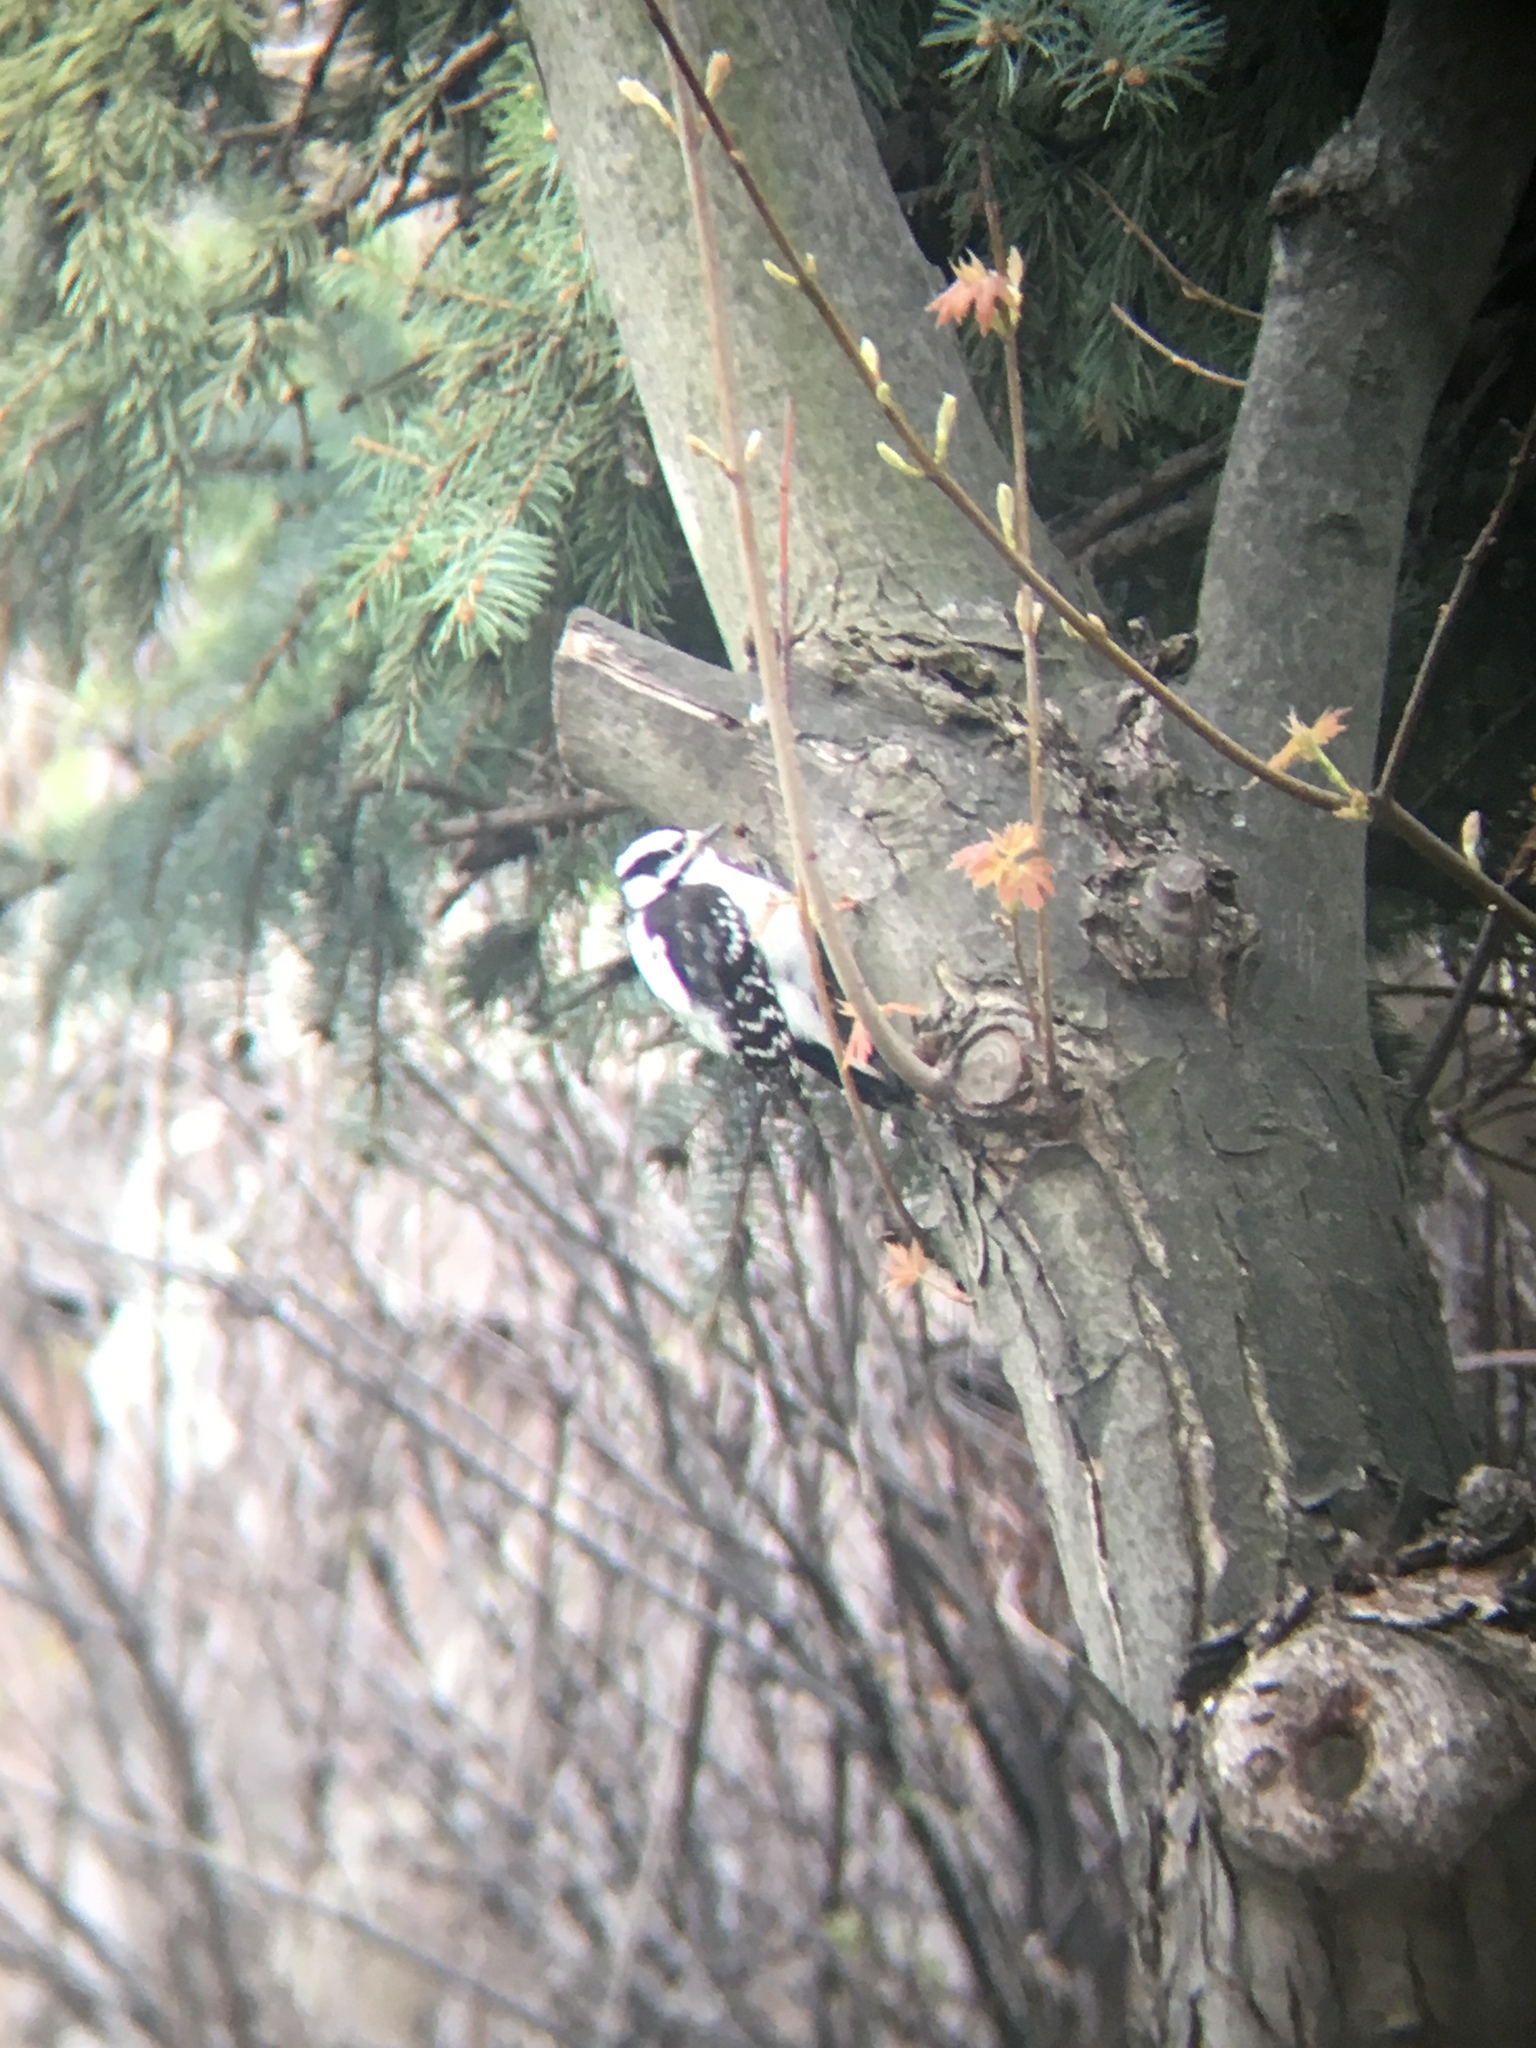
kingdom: Animalia
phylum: Chordata
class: Aves
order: Piciformes
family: Picidae
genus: Dryobates
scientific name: Dryobates pubescens
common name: Downy woodpecker
